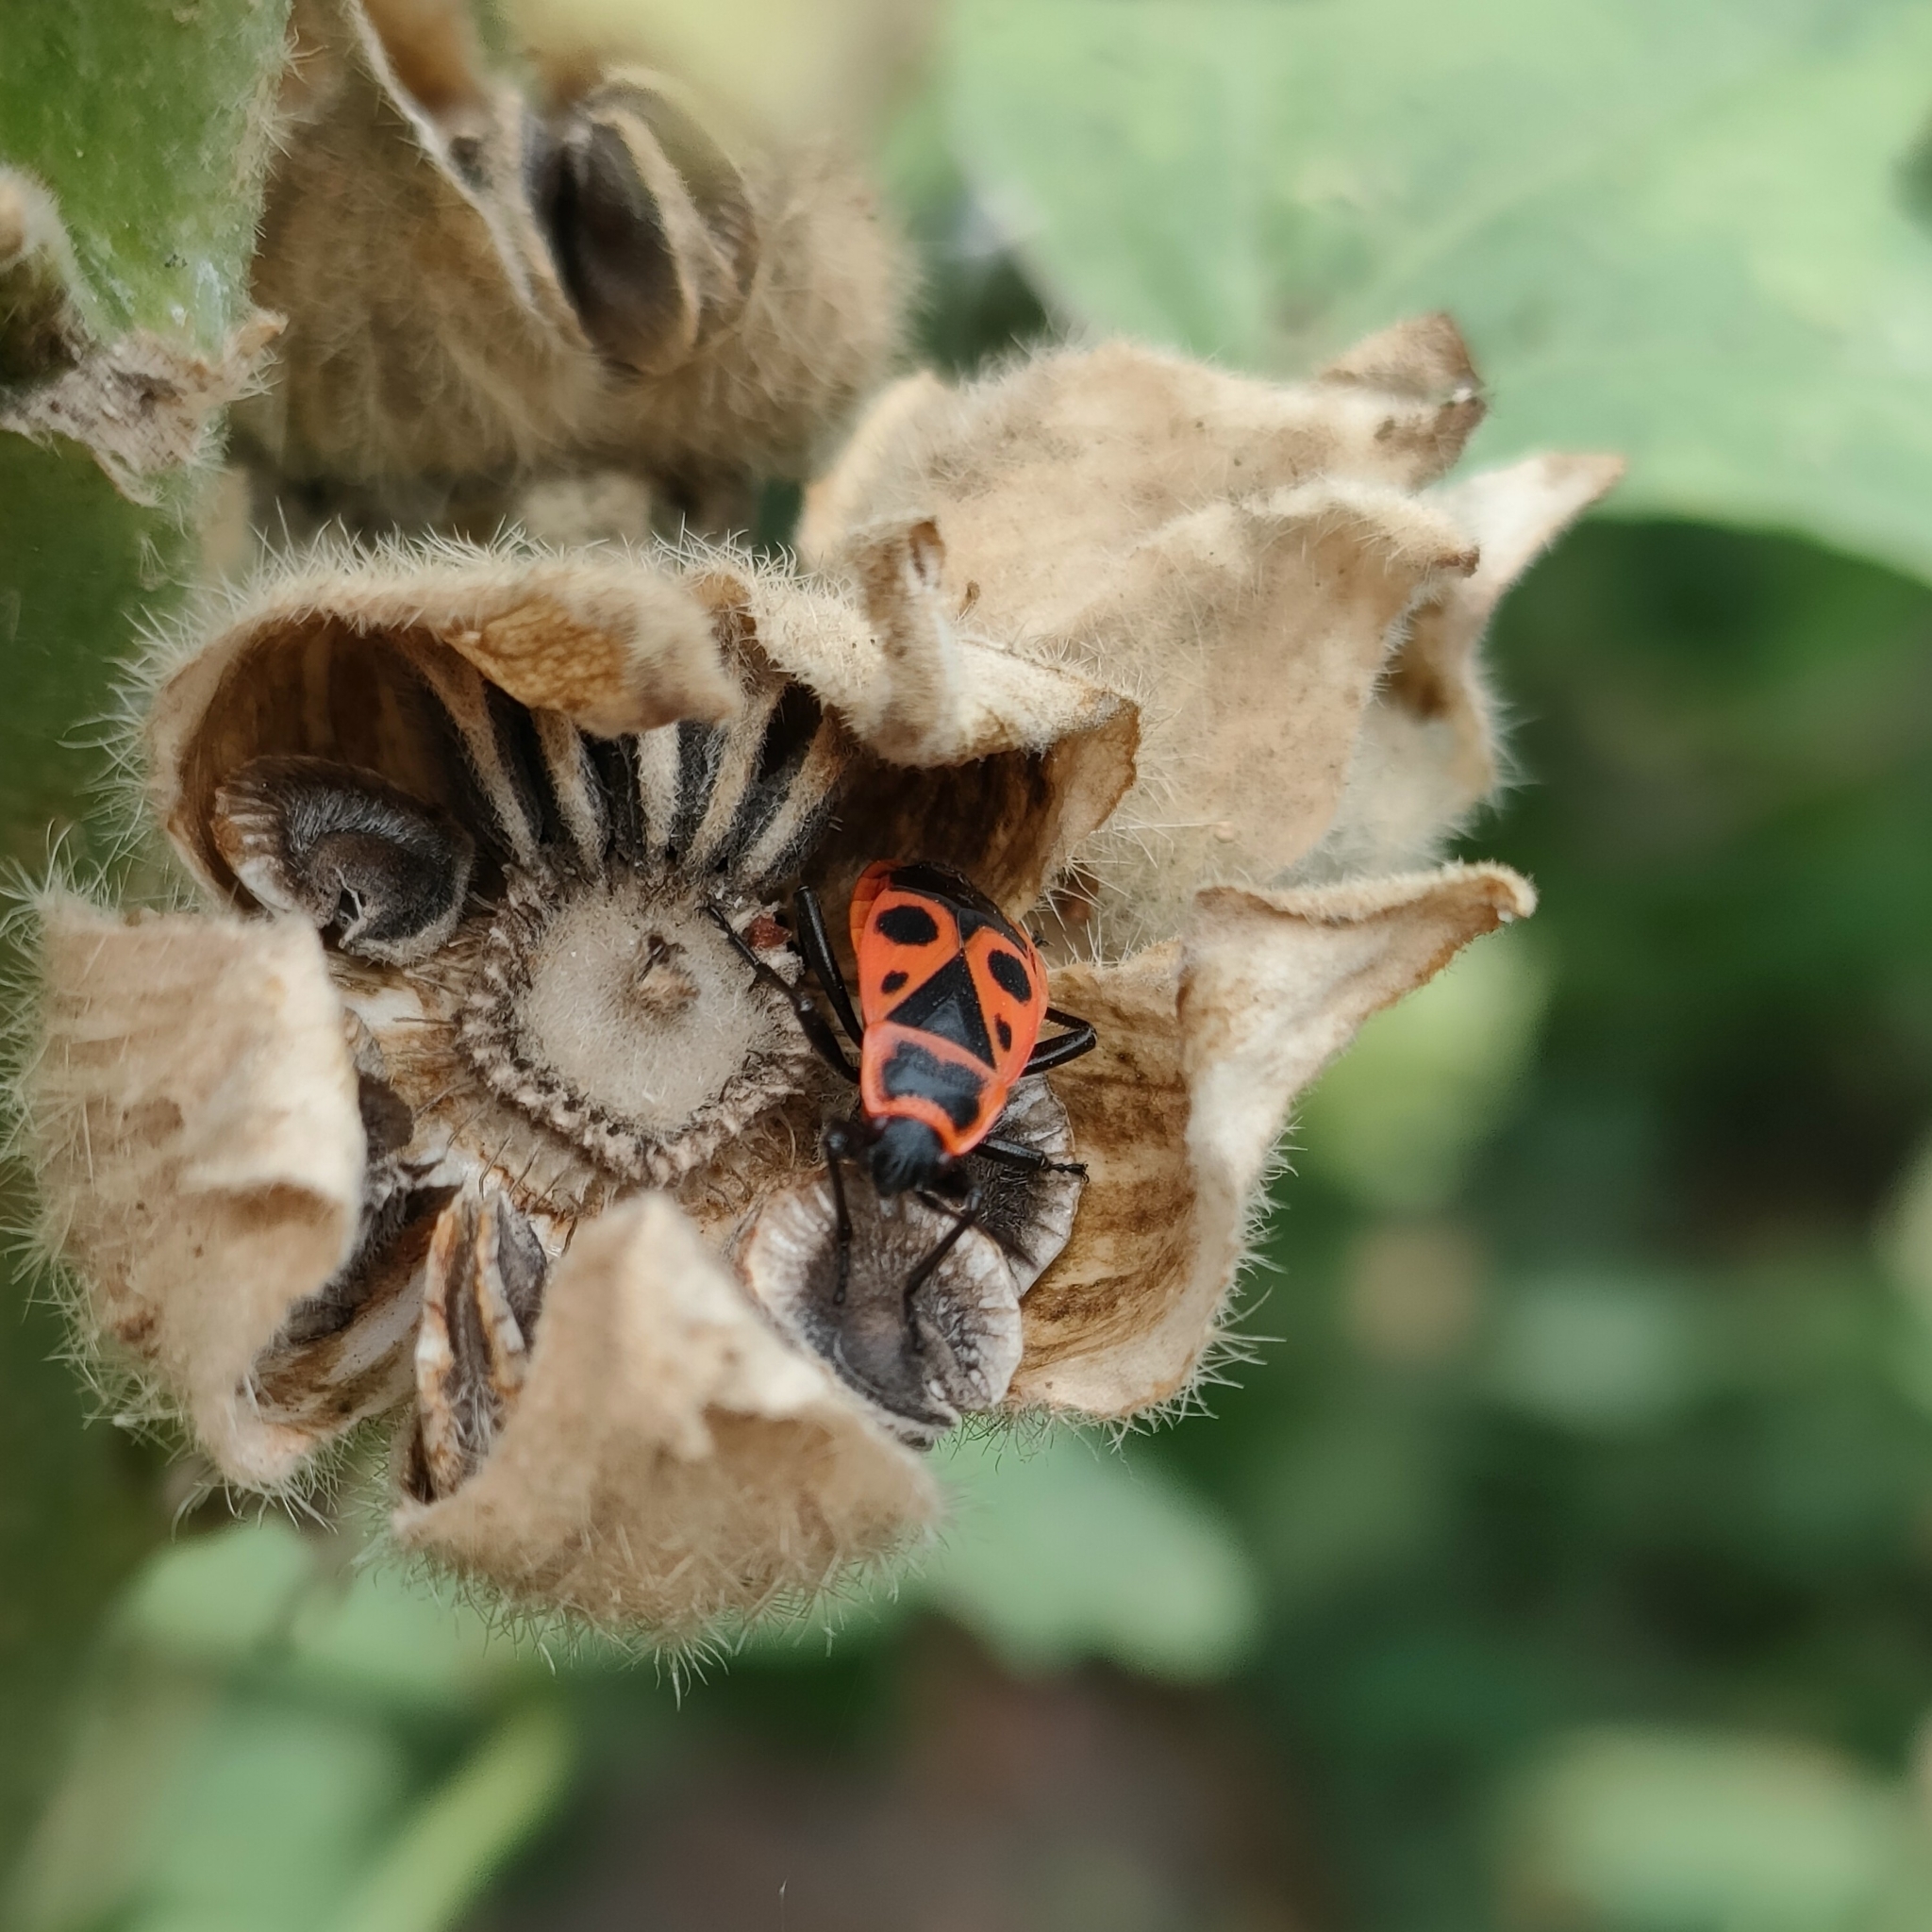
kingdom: Animalia
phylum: Arthropoda
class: Insecta
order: Hemiptera
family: Pyrrhocoridae
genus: Pyrrhocoris
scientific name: Pyrrhocoris apterus
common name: Firebug
